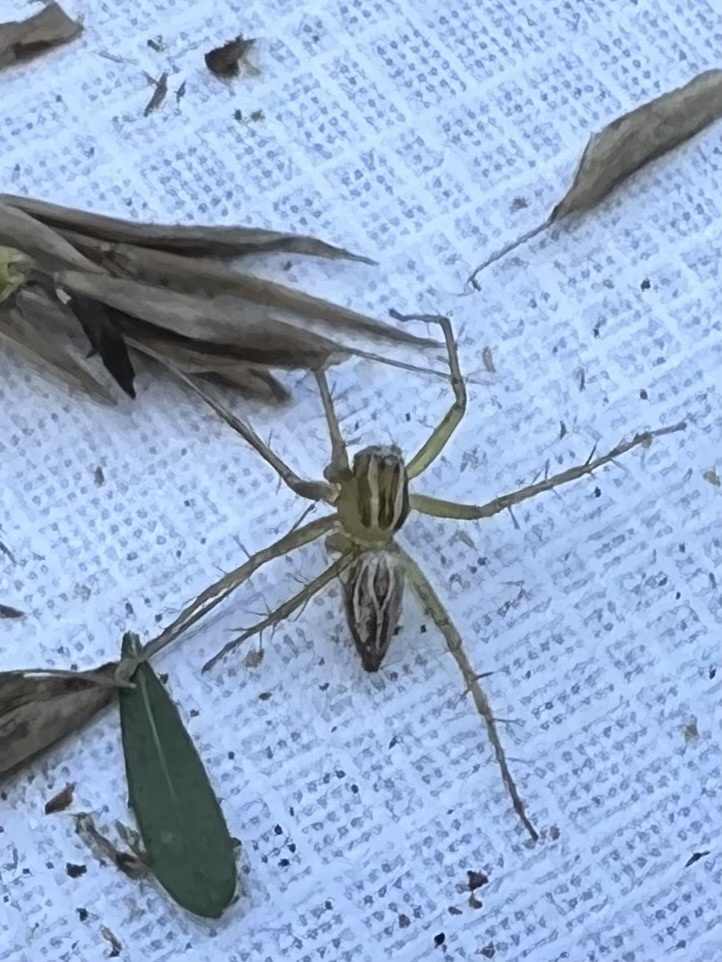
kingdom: Animalia
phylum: Arthropoda
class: Arachnida
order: Araneae
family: Oxyopidae
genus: Oxyopes
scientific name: Oxyopes salticus
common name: Lynx spiders
